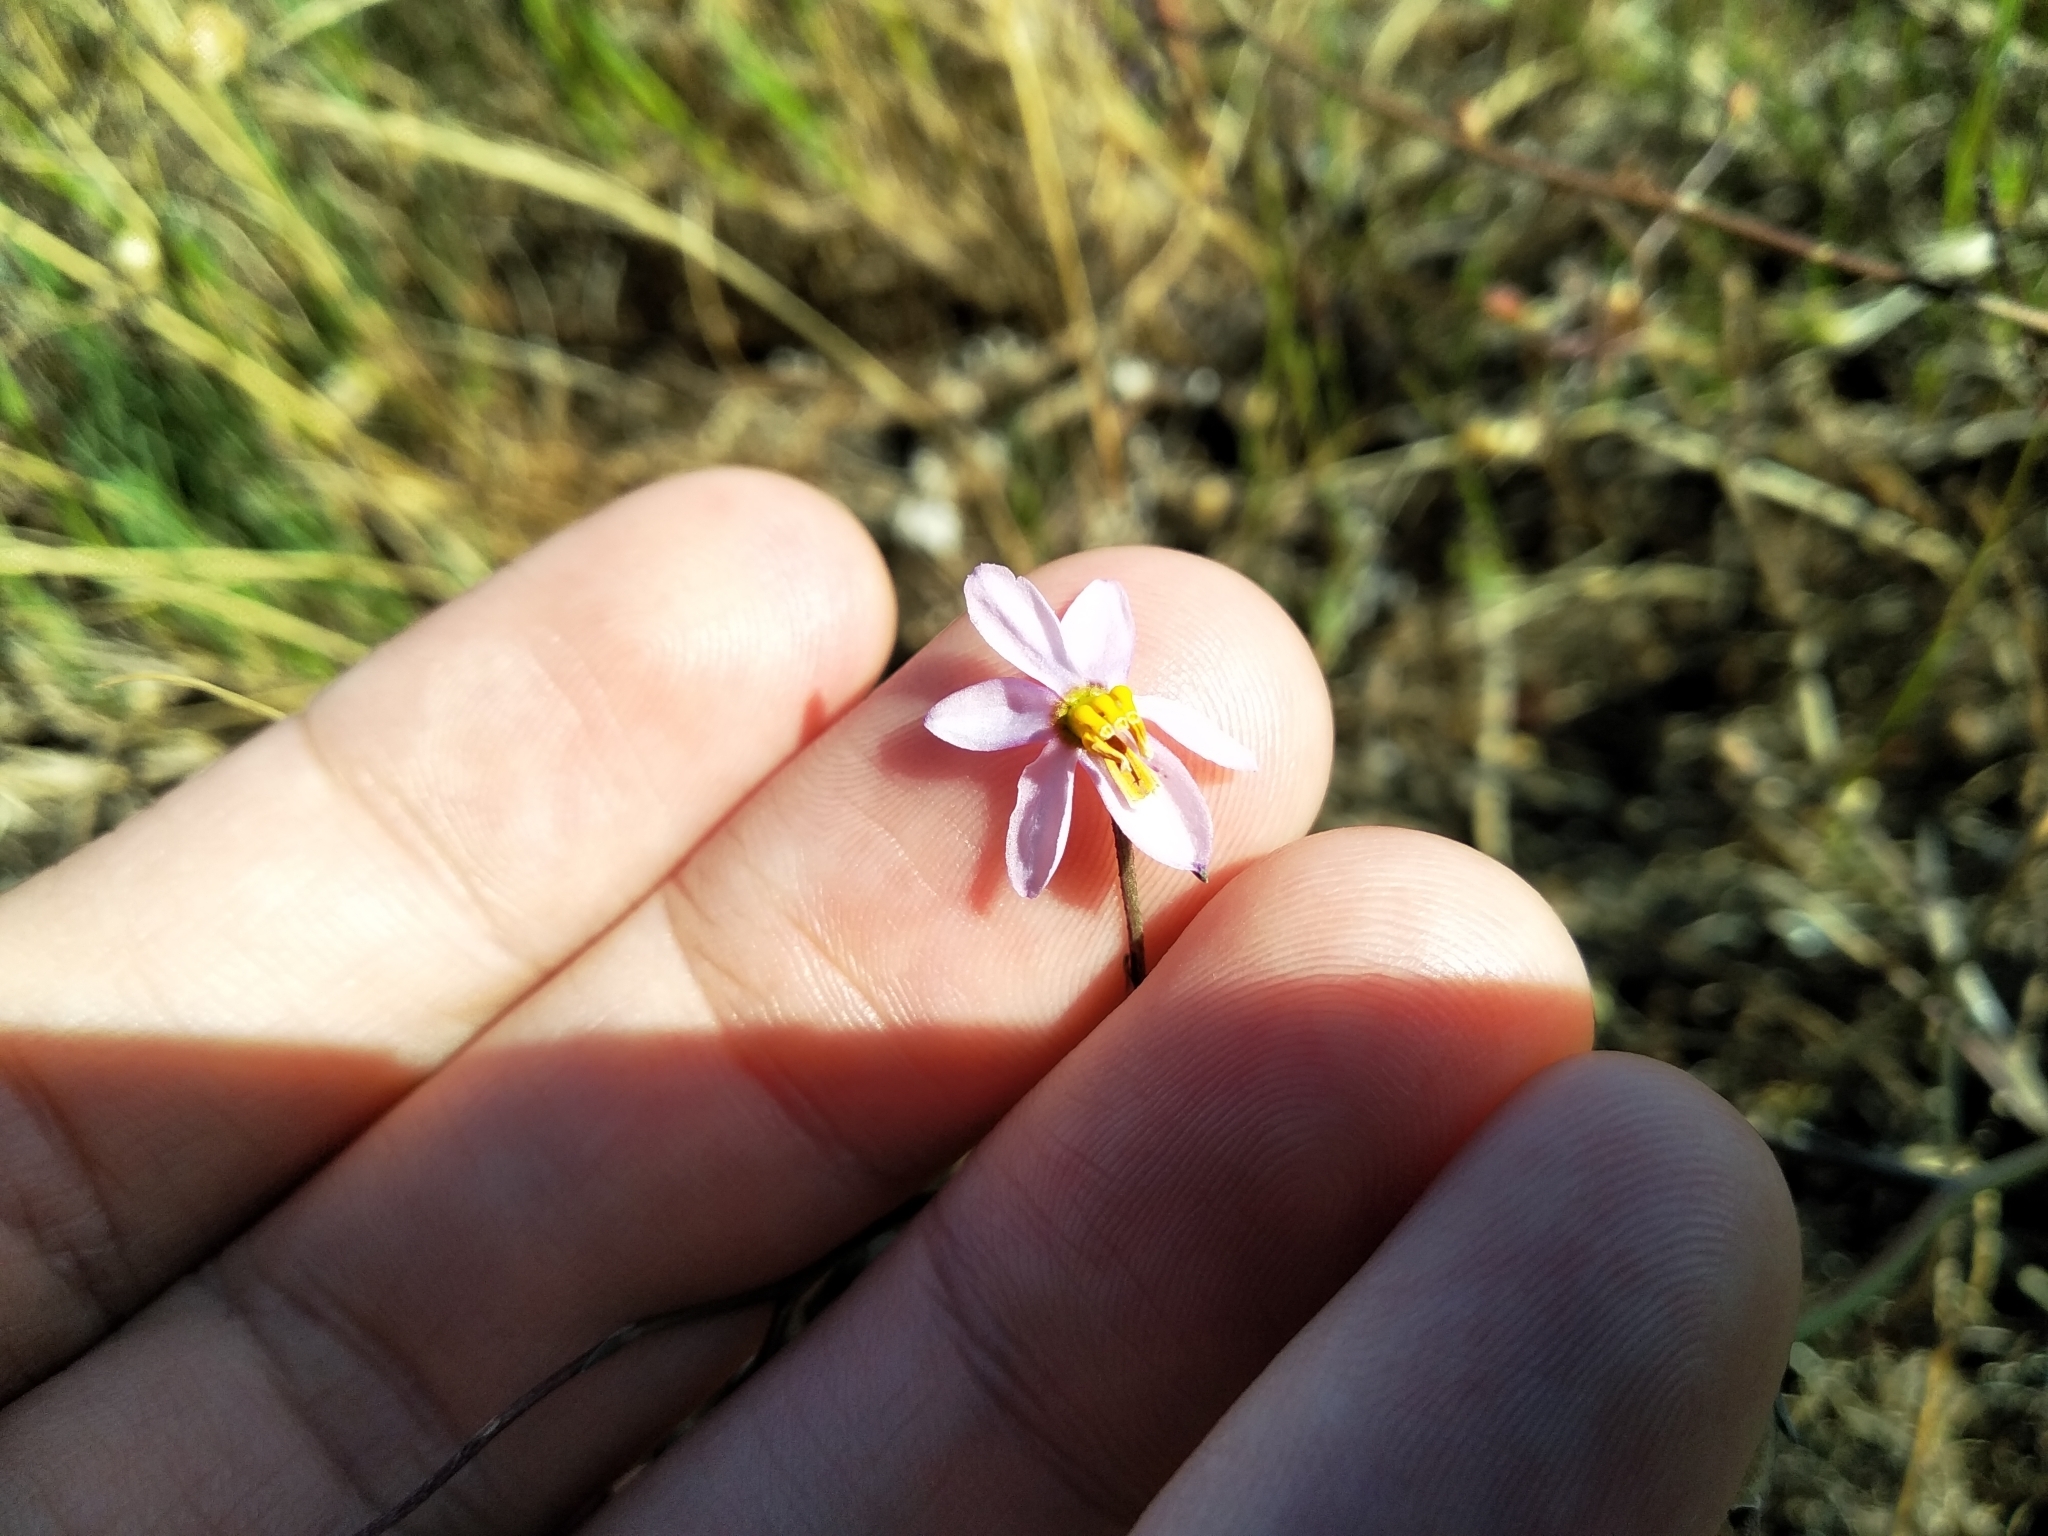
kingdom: Plantae
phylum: Tracheophyta
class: Liliopsida
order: Asparagales
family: Tecophilaeaceae
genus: Cyanella
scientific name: Cyanella hyacinthoides
